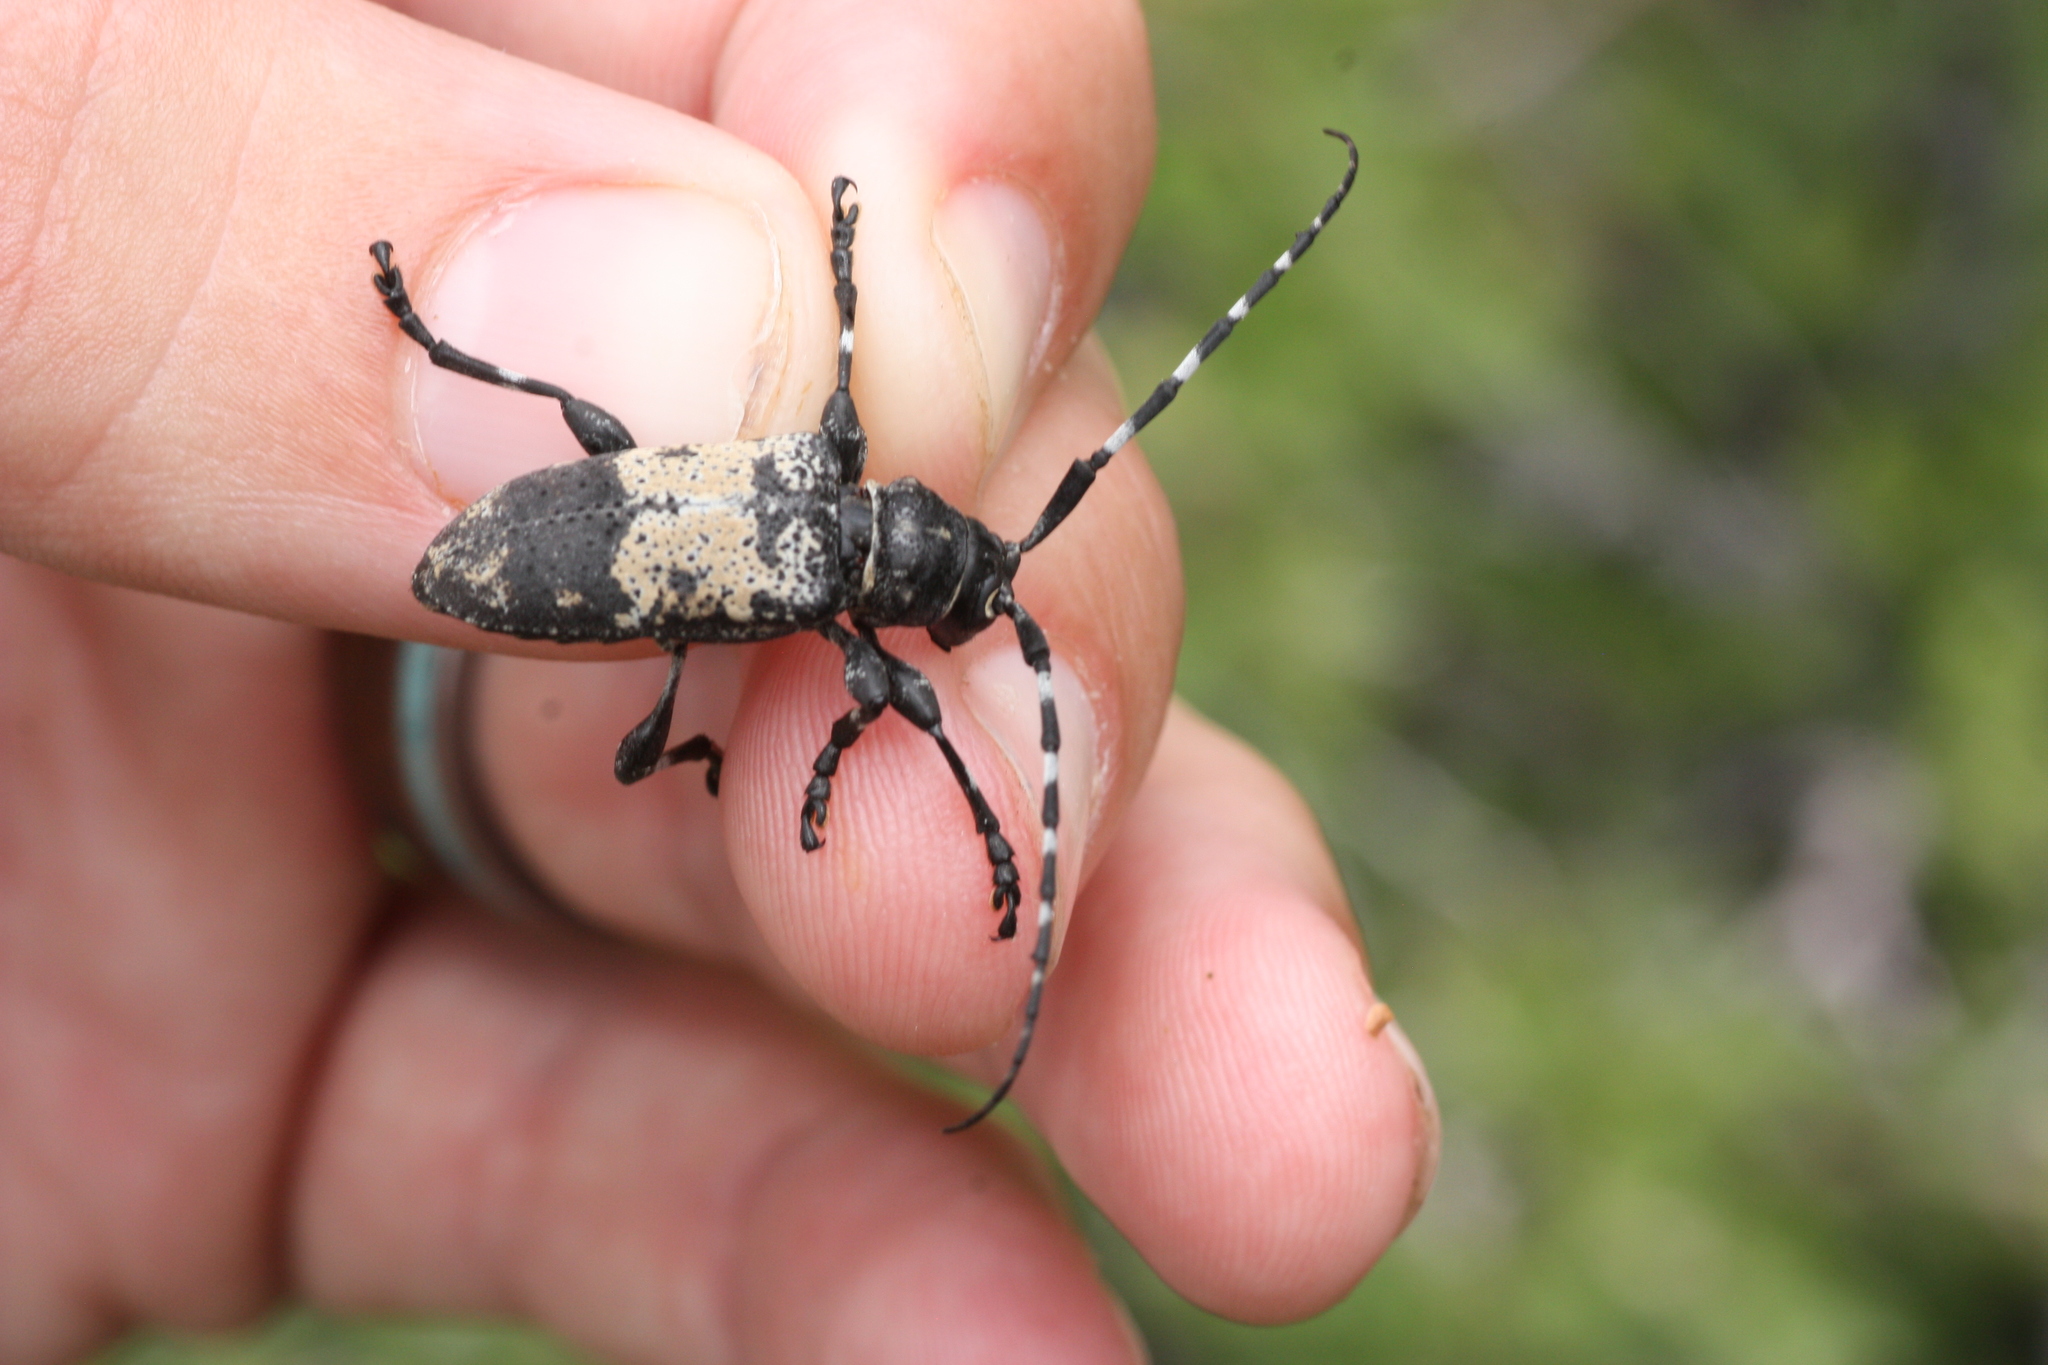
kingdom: Animalia
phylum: Arthropoda
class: Insecta
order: Coleoptera
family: Cerambycidae
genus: Coenopoeus
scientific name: Coenopoeus palmeri
